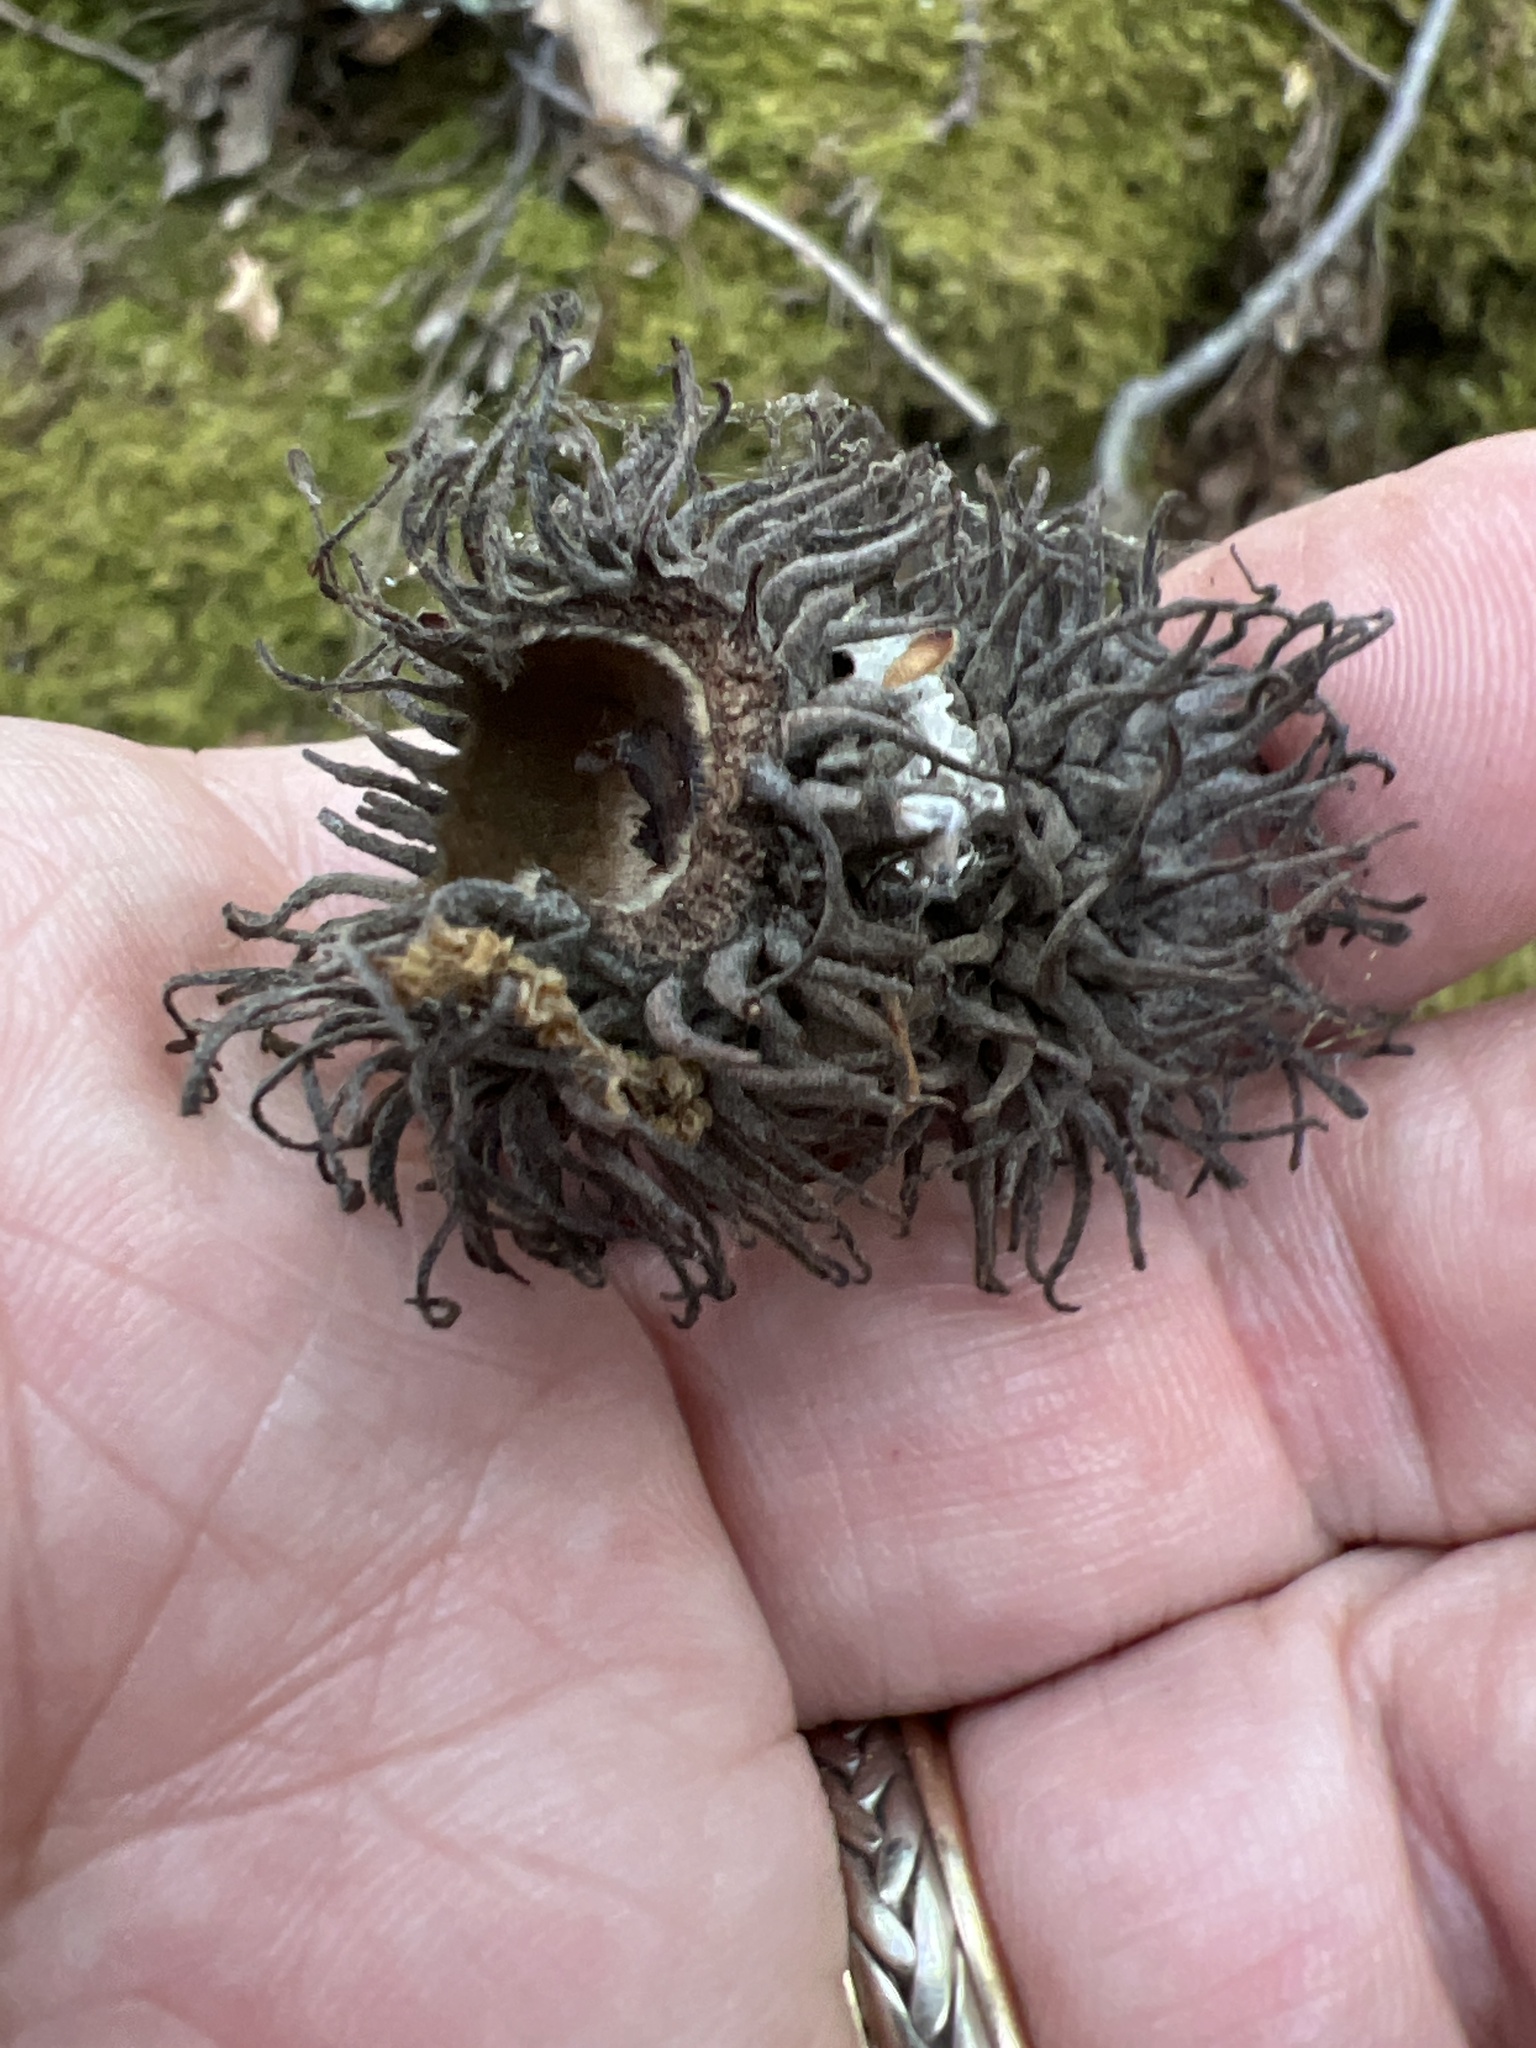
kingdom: Plantae
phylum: Tracheophyta
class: Magnoliopsida
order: Fagales
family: Fagaceae
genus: Quercus
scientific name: Quercus cerris
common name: Turkey oak
